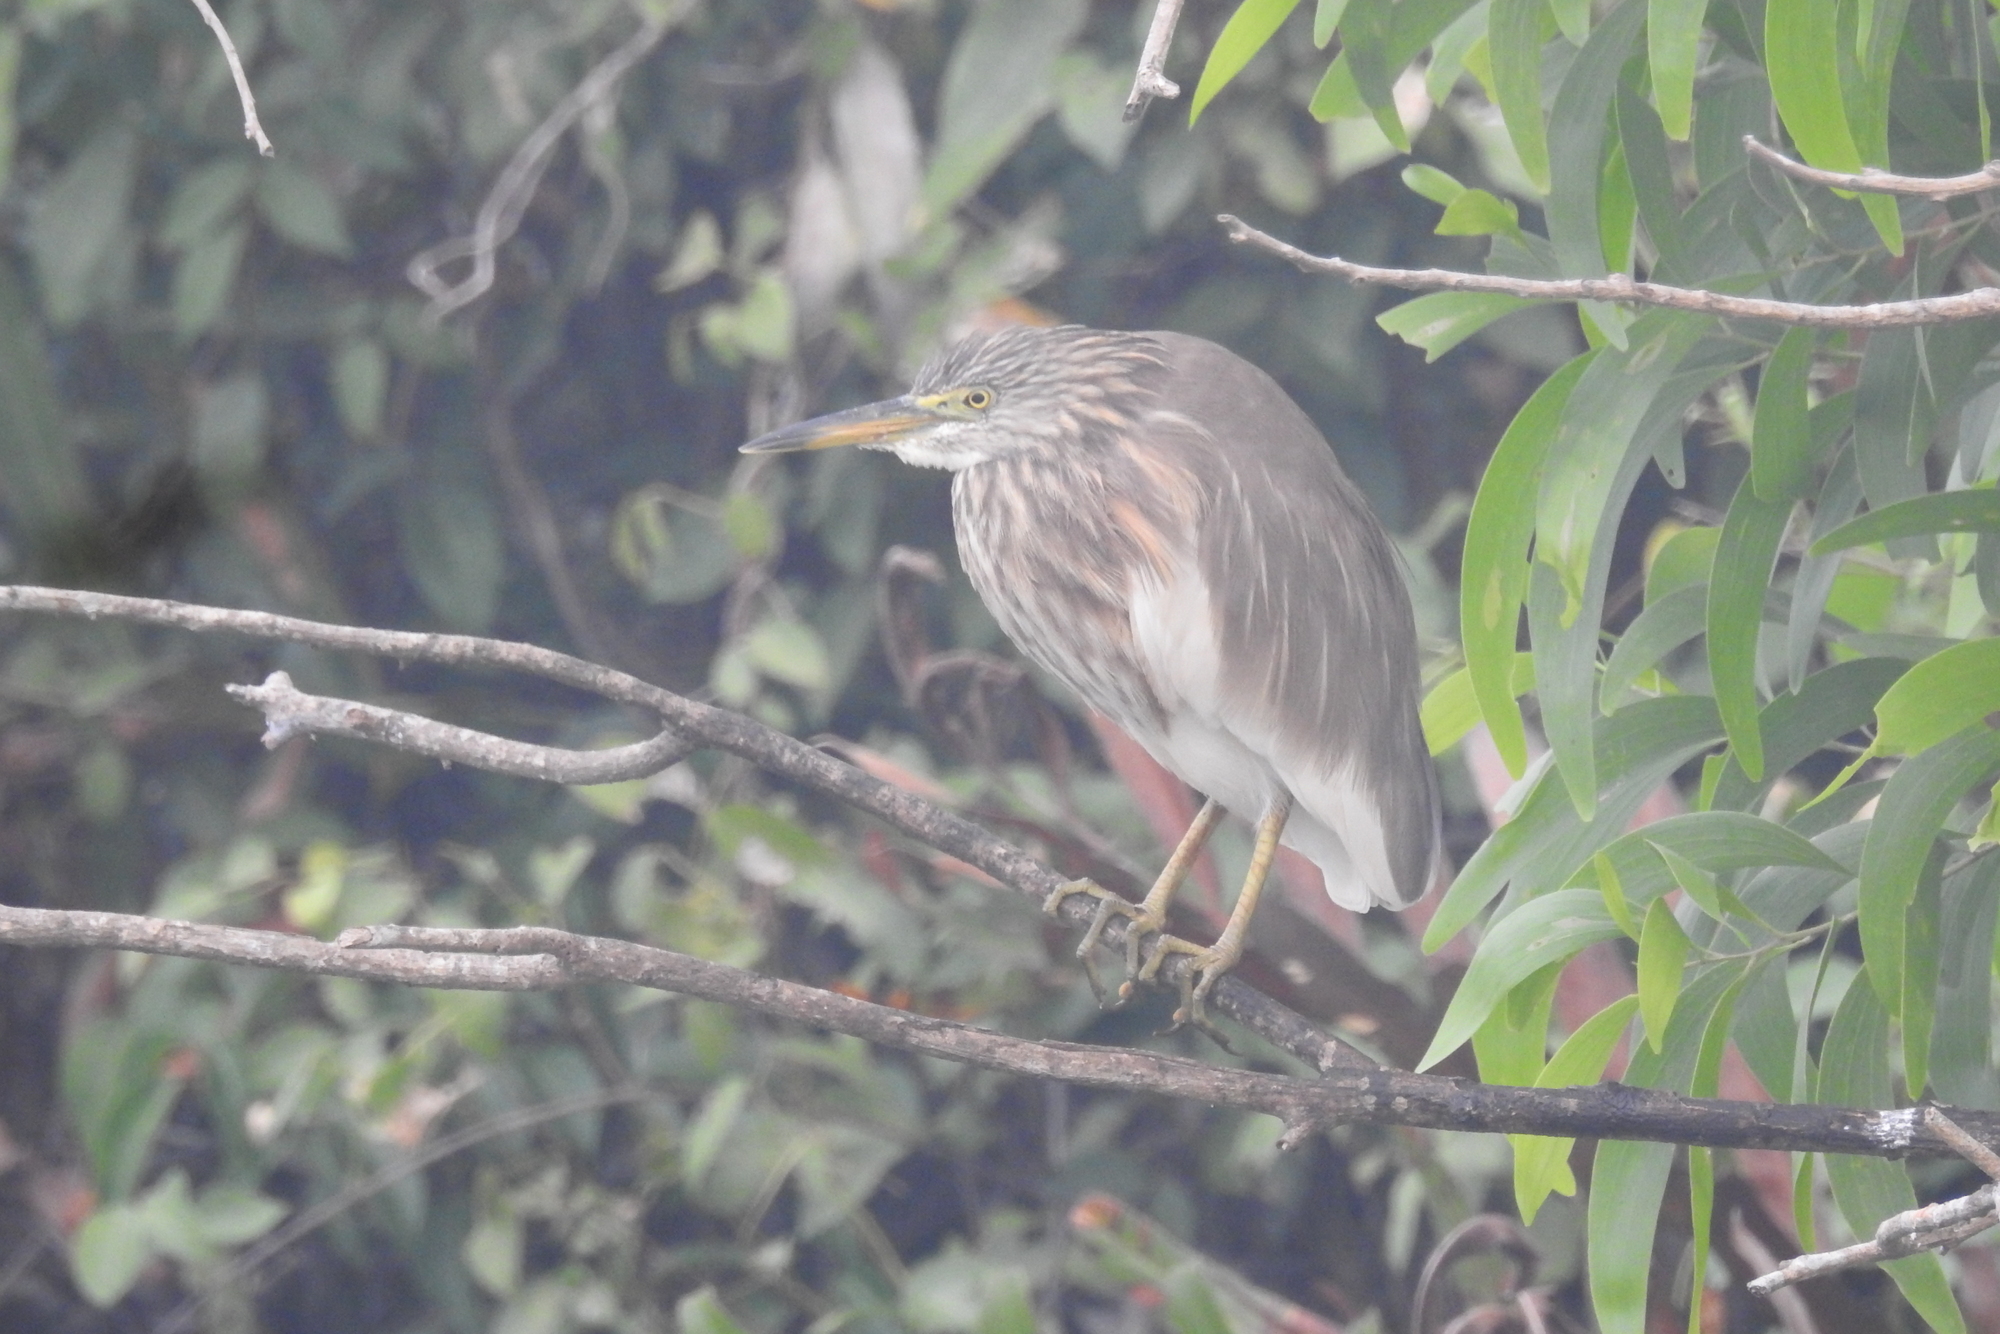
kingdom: Animalia
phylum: Chordata
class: Aves
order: Pelecaniformes
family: Ardeidae
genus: Ardeola
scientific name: Ardeola grayii
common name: Indian pond heron
